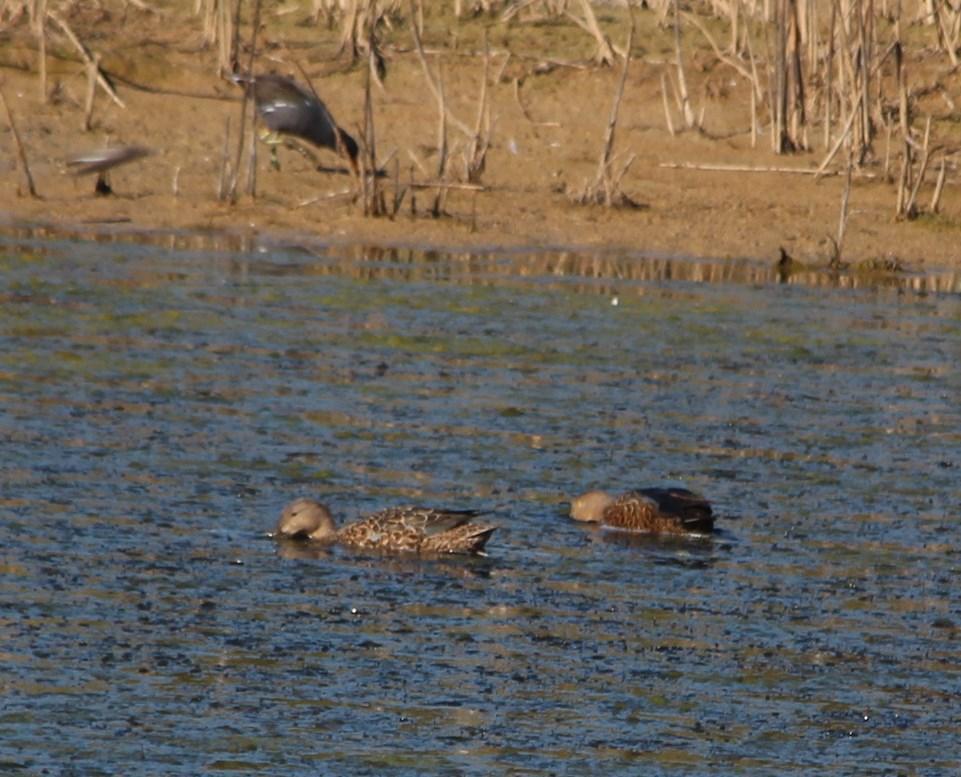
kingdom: Animalia
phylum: Chordata
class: Aves
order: Anseriformes
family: Anatidae
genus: Spatula
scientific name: Spatula smithii
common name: Cape shoveler
